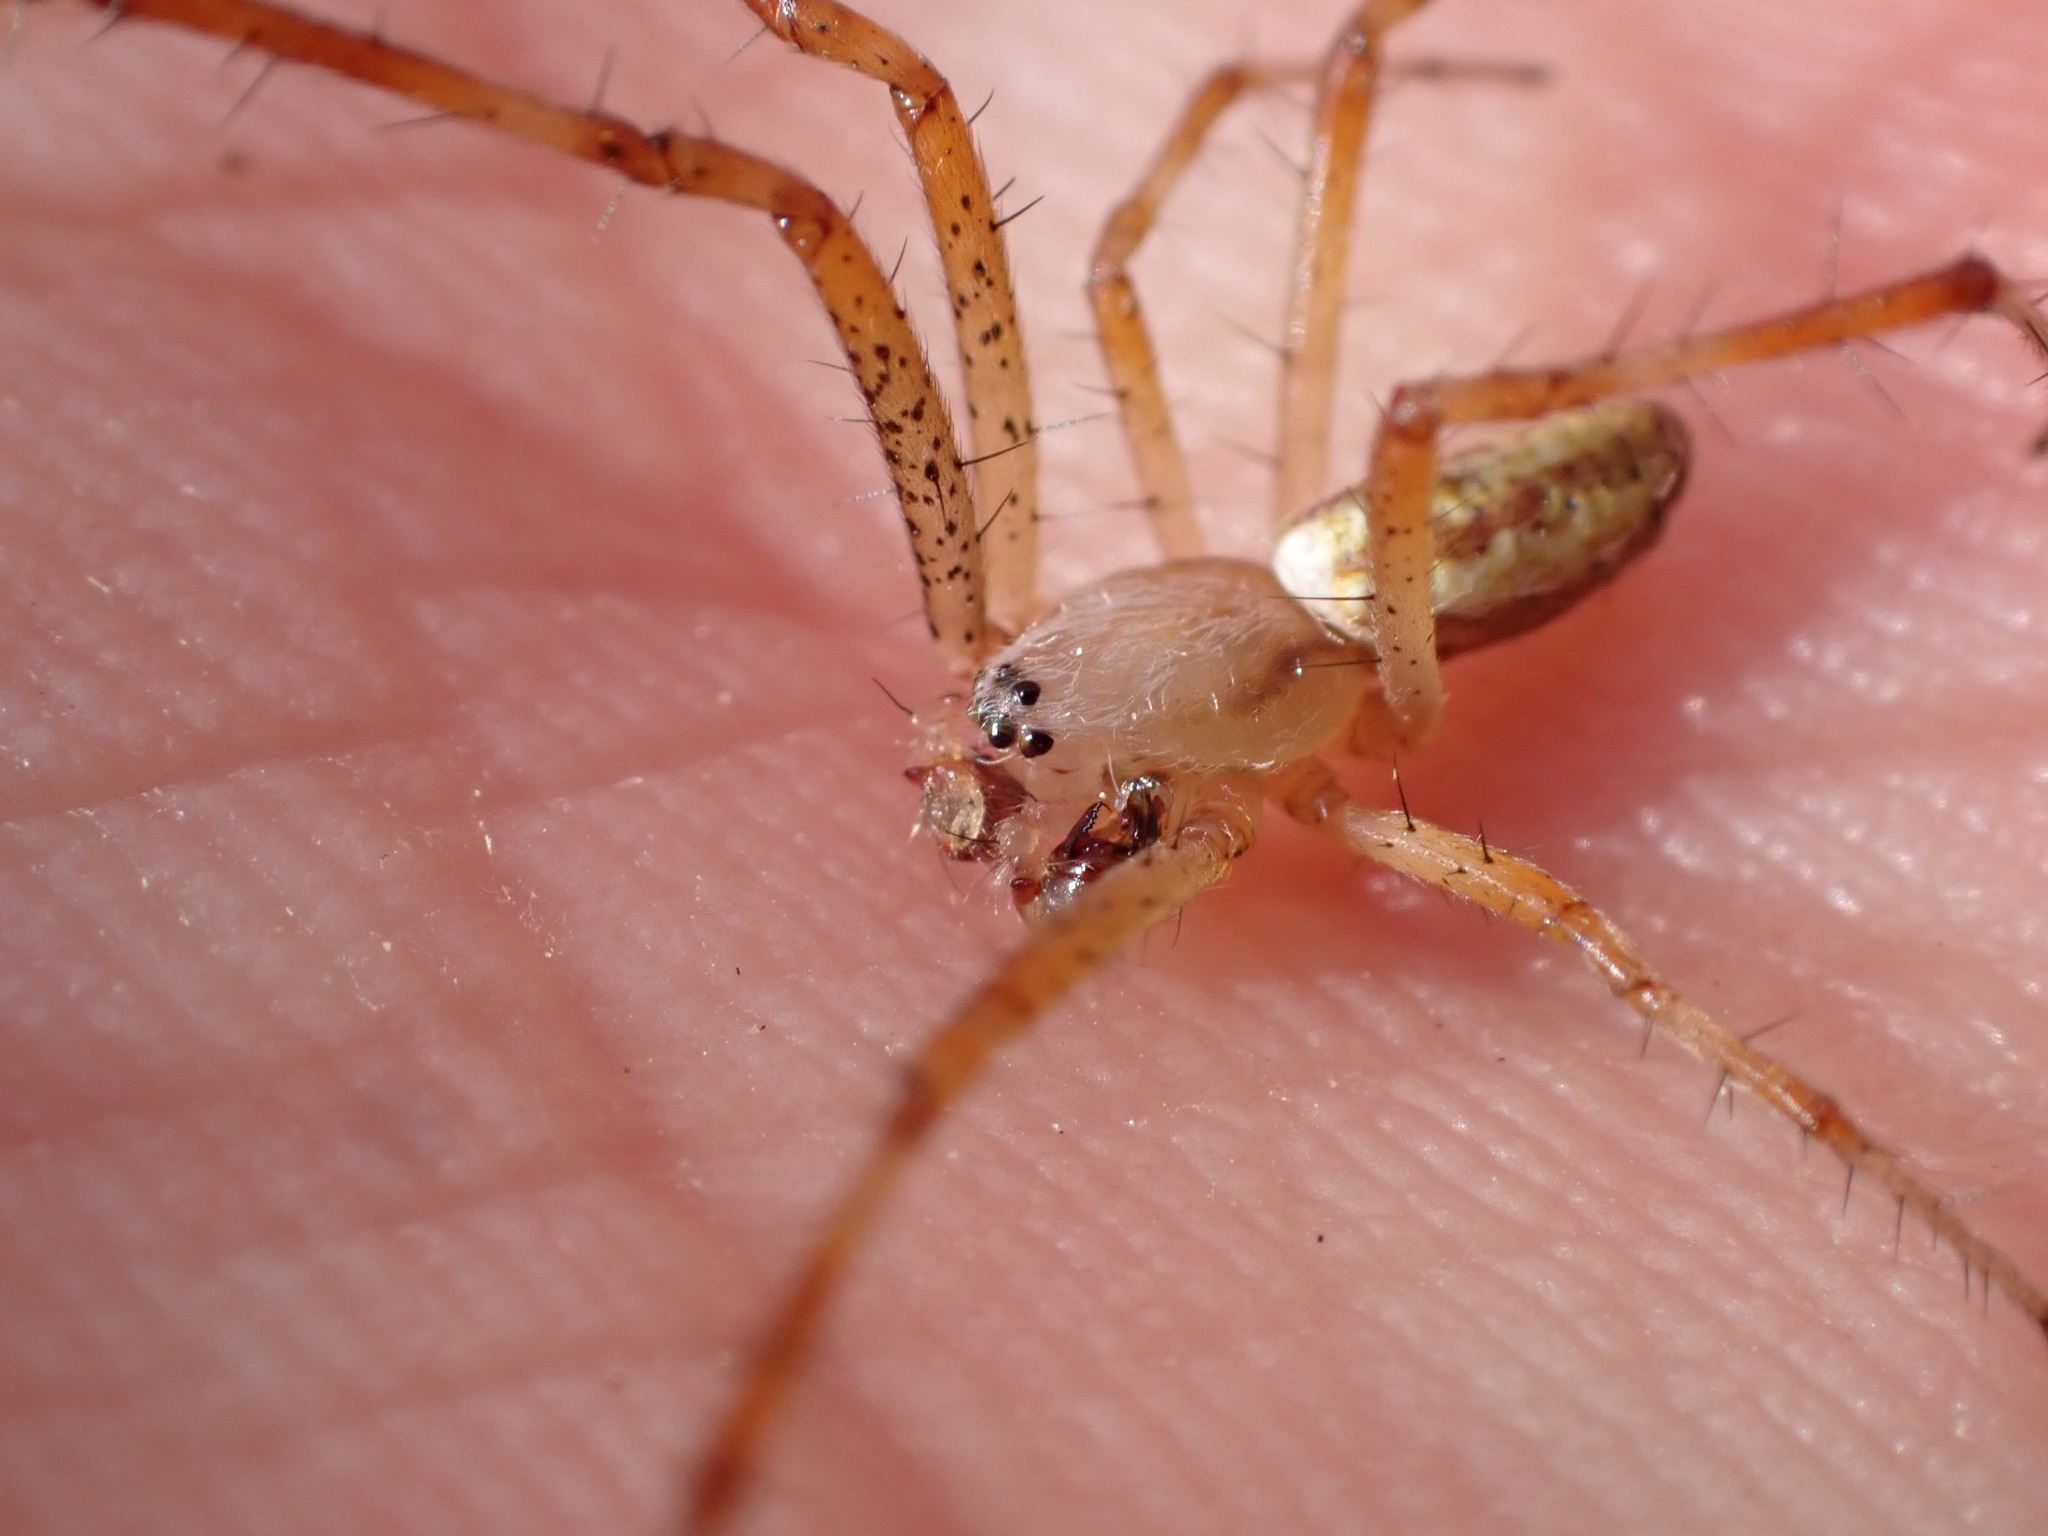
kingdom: Animalia
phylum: Arthropoda
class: Arachnida
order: Araneae
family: Araneidae
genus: Argiope
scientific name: Argiope bruennichi
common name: Wasp spider
